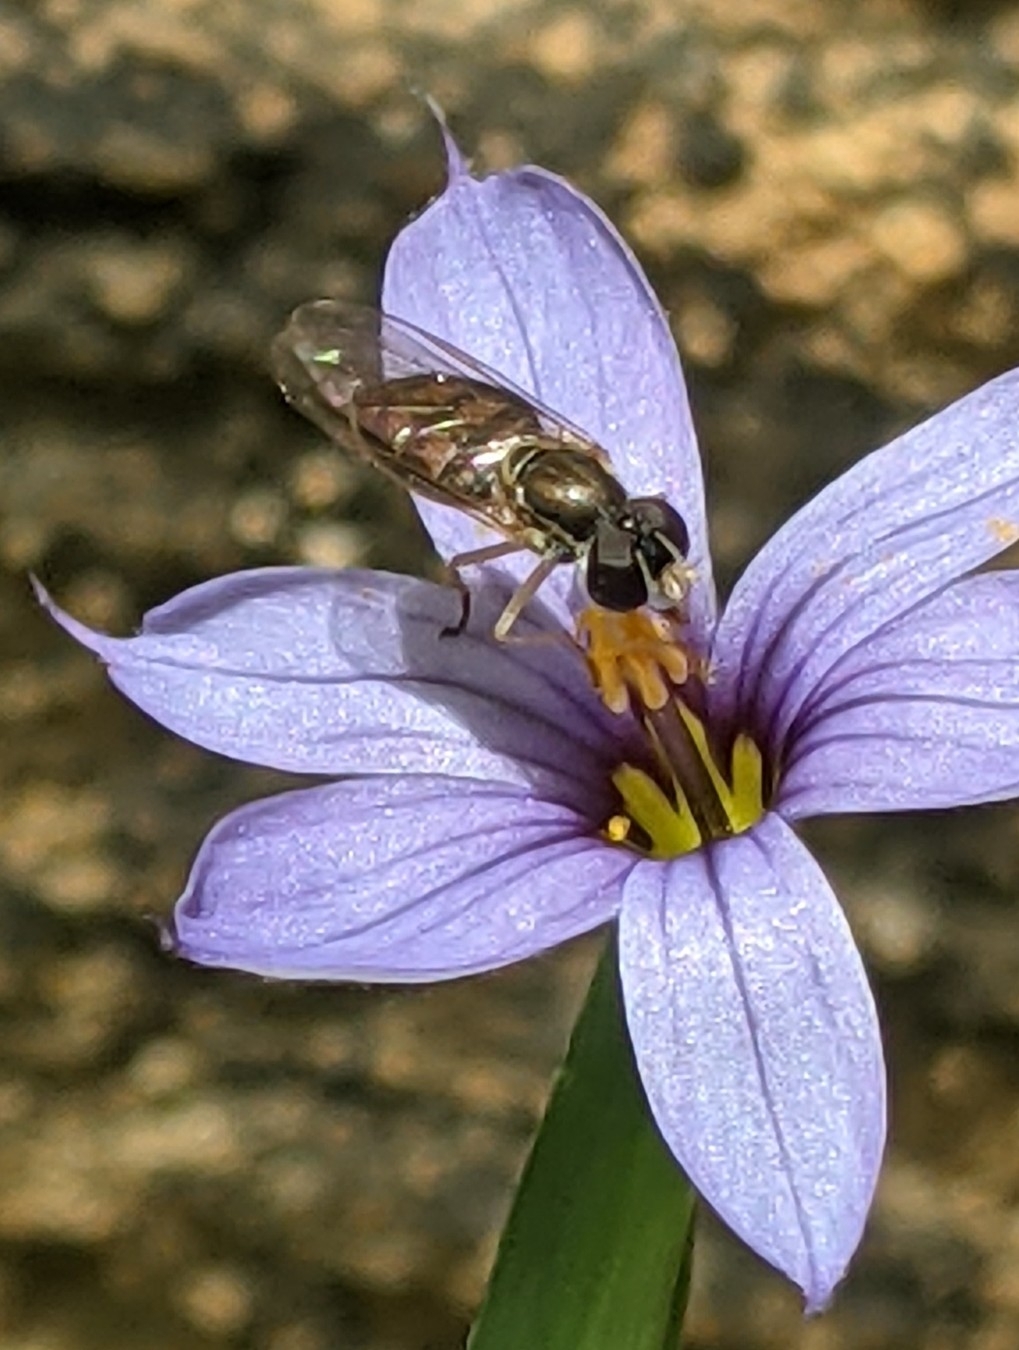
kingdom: Animalia
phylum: Arthropoda
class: Insecta
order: Diptera
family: Syrphidae
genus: Toxomerus
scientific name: Toxomerus marginatus
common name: Syrphid fly
